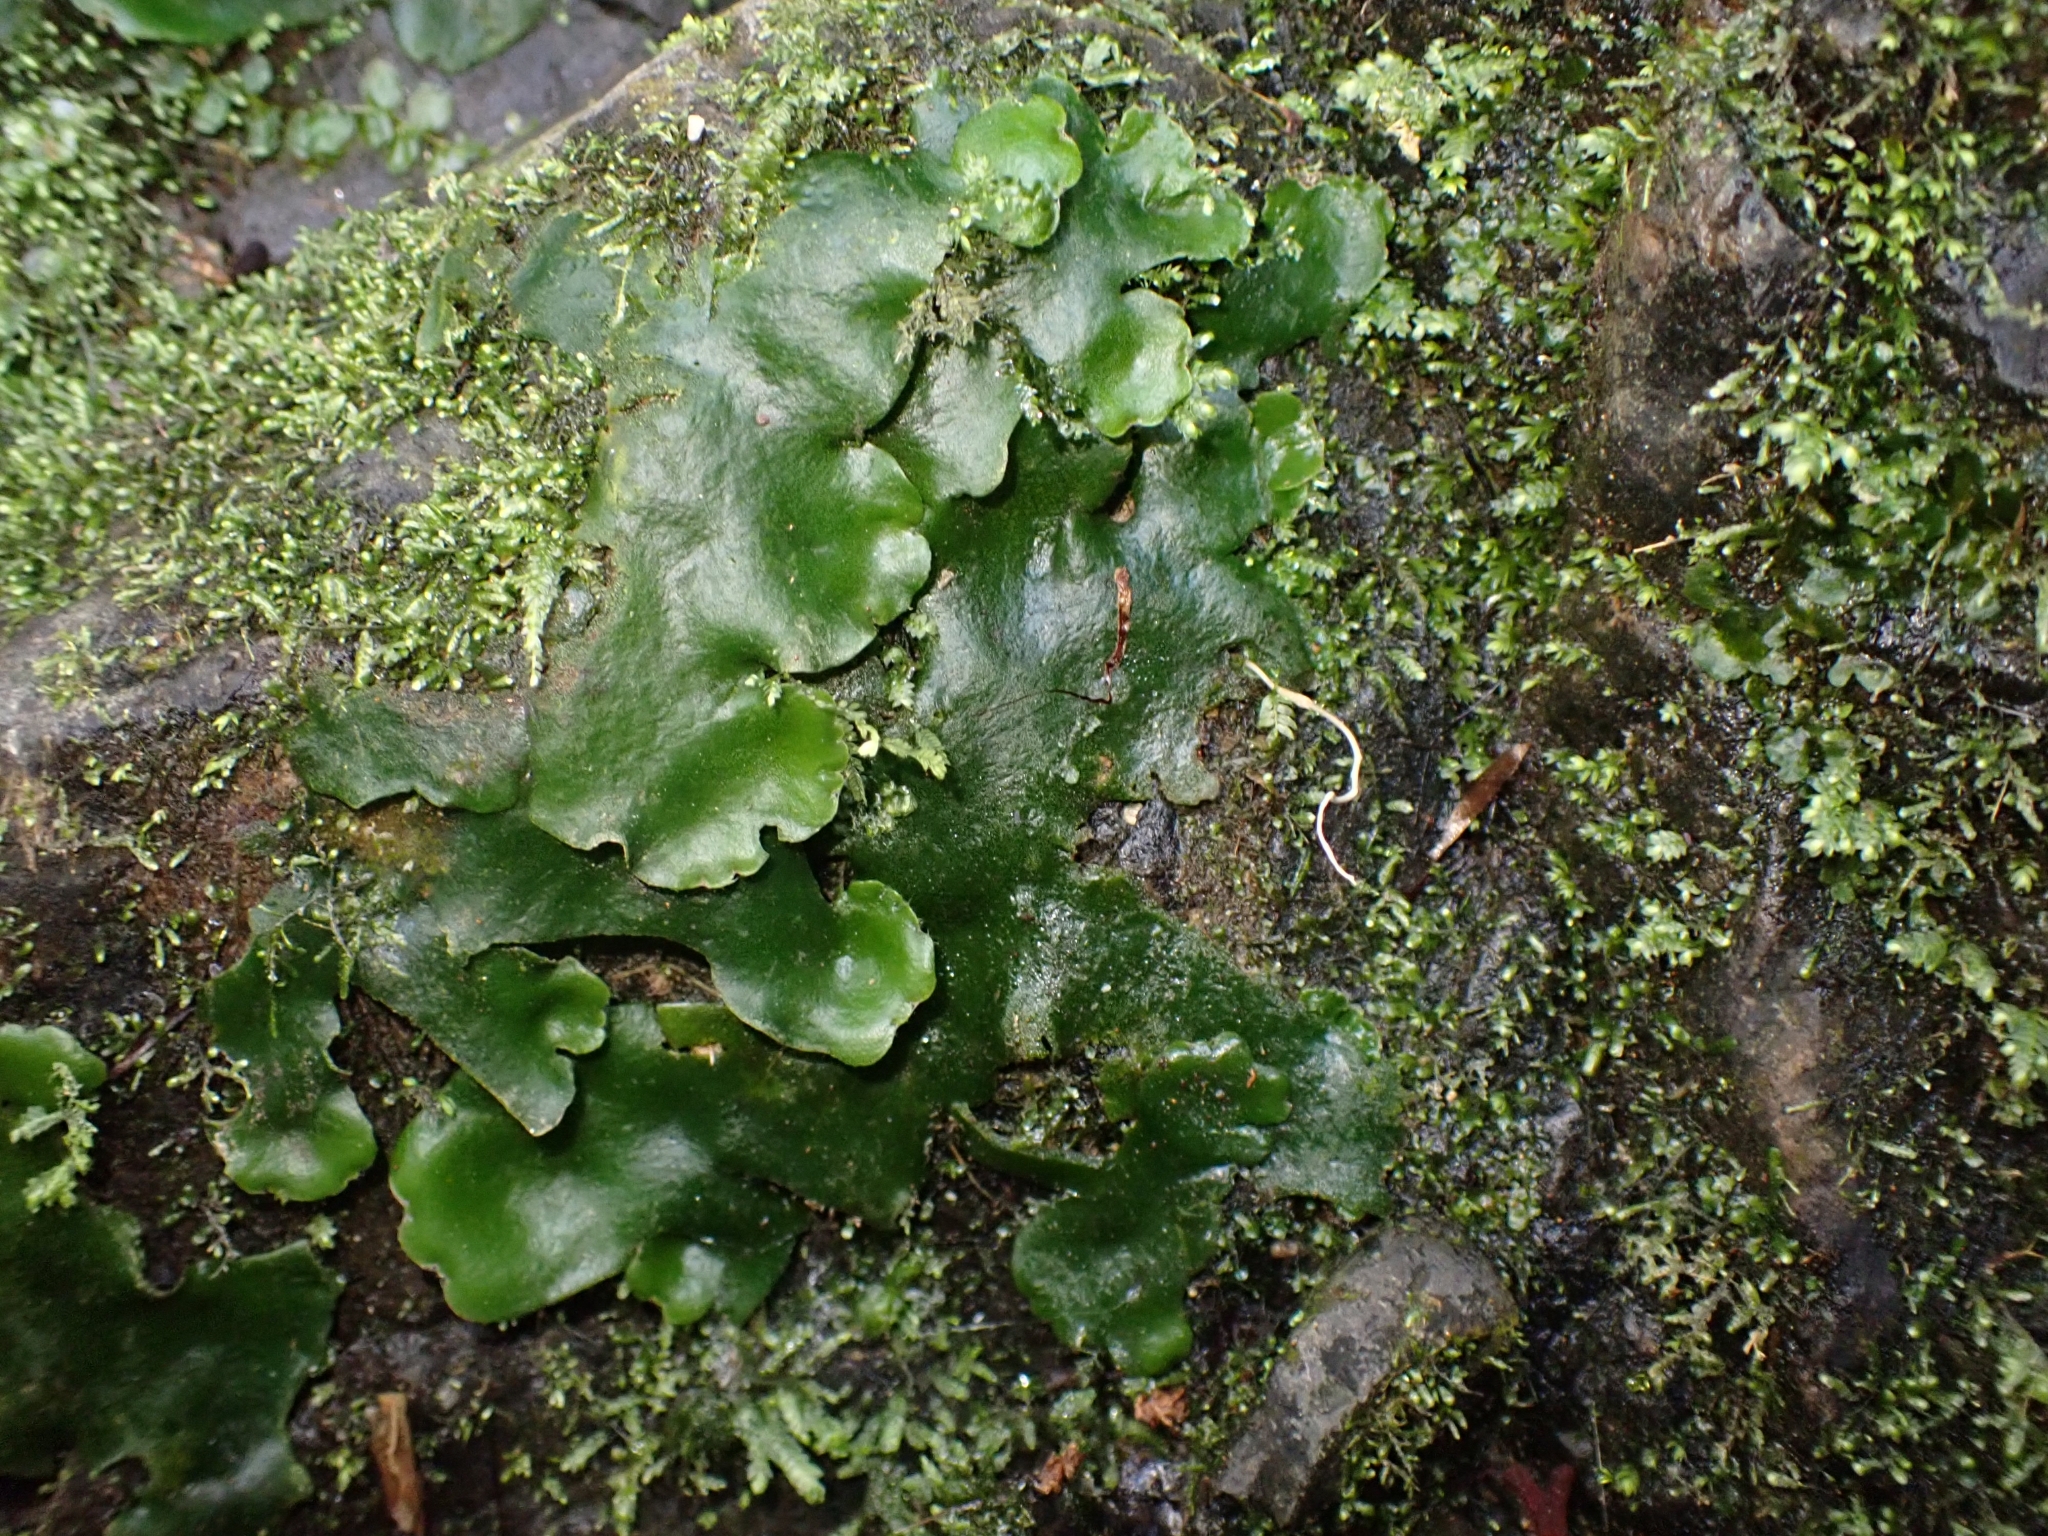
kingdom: Plantae
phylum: Marchantiophyta
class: Marchantiopsida
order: Marchantiales
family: Monocleaceae
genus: Monoclea
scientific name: Monoclea forsteri
